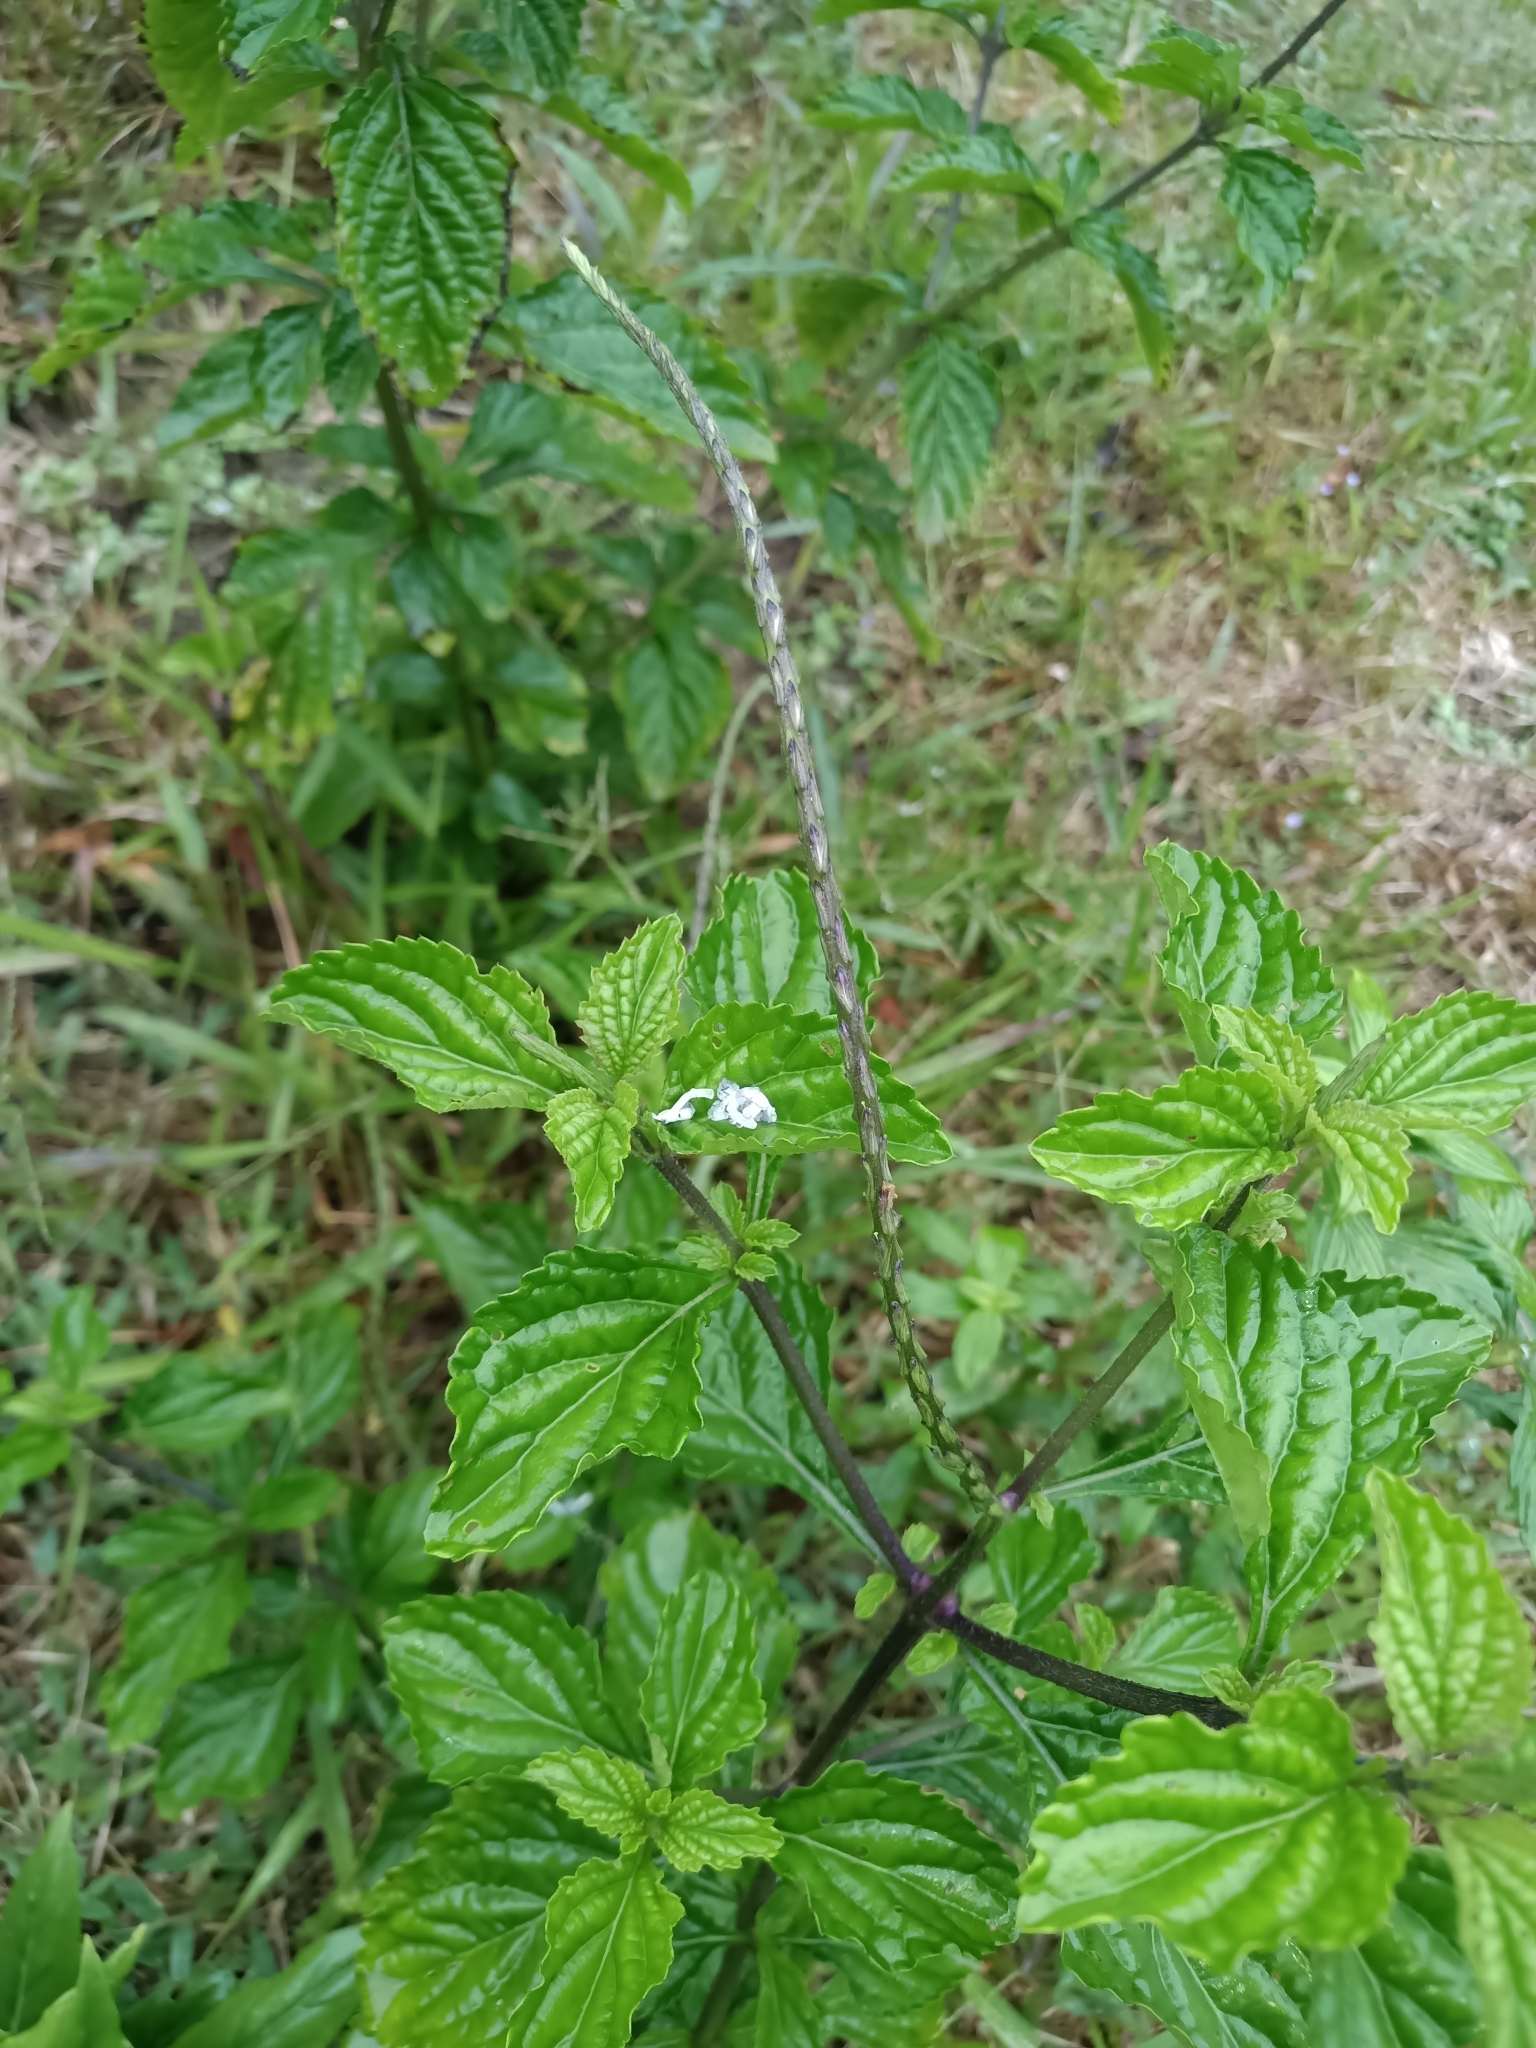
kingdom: Plantae
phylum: Tracheophyta
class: Magnoliopsida
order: Lamiales
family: Verbenaceae
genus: Stachytarpheta
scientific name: Stachytarpheta cayennensis
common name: Cayenne porterweed
